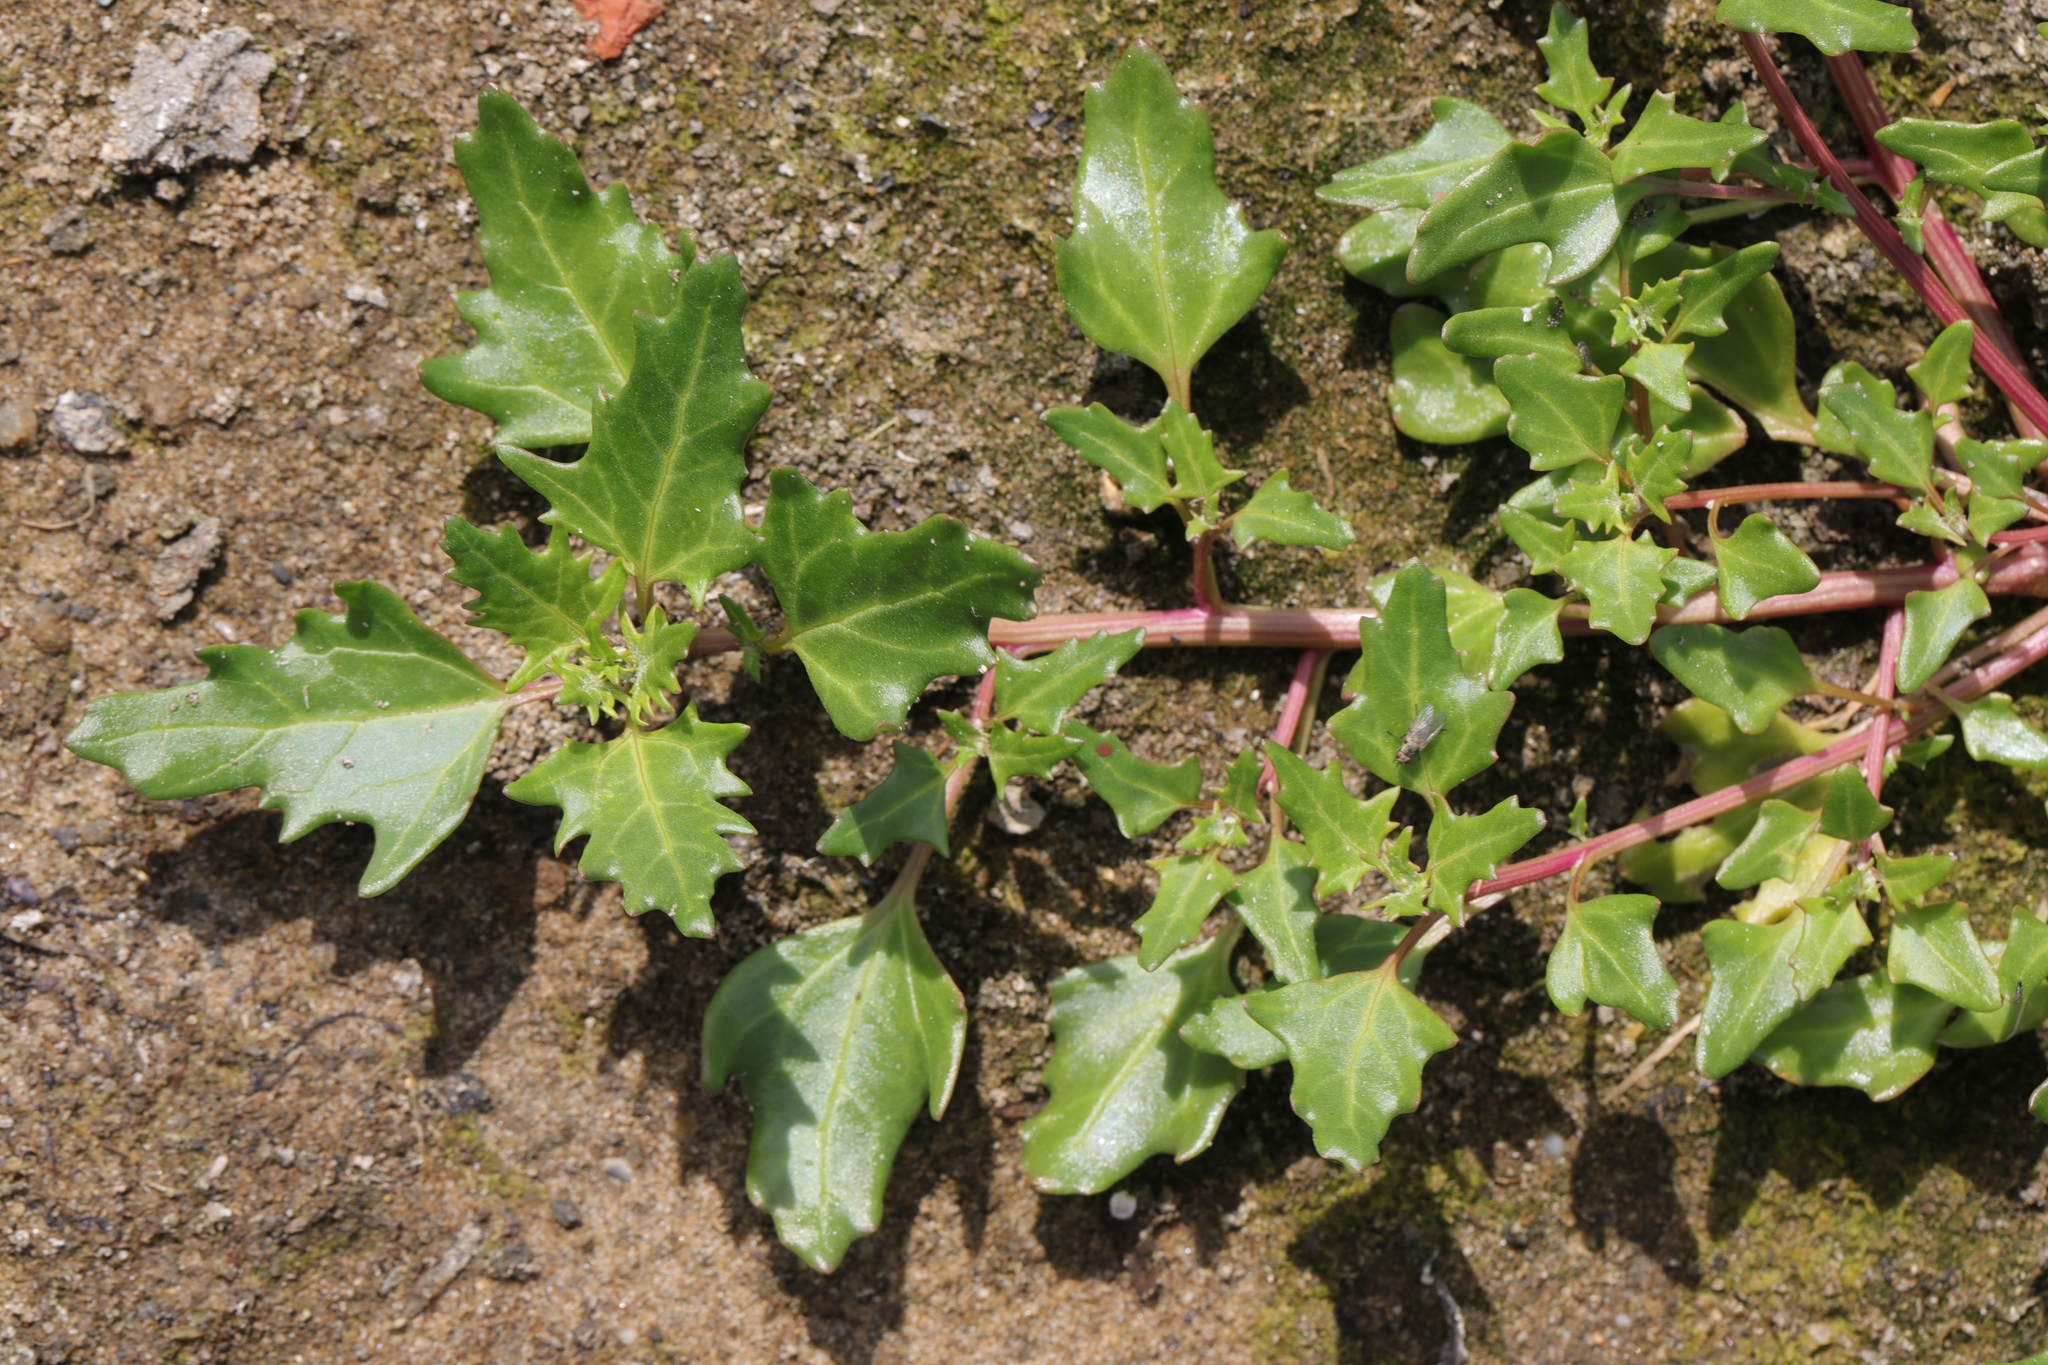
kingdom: Plantae
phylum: Tracheophyta
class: Magnoliopsida
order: Caryophyllales
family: Amaranthaceae
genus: Oxybasis
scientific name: Oxybasis rubra
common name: Red goosefoot
